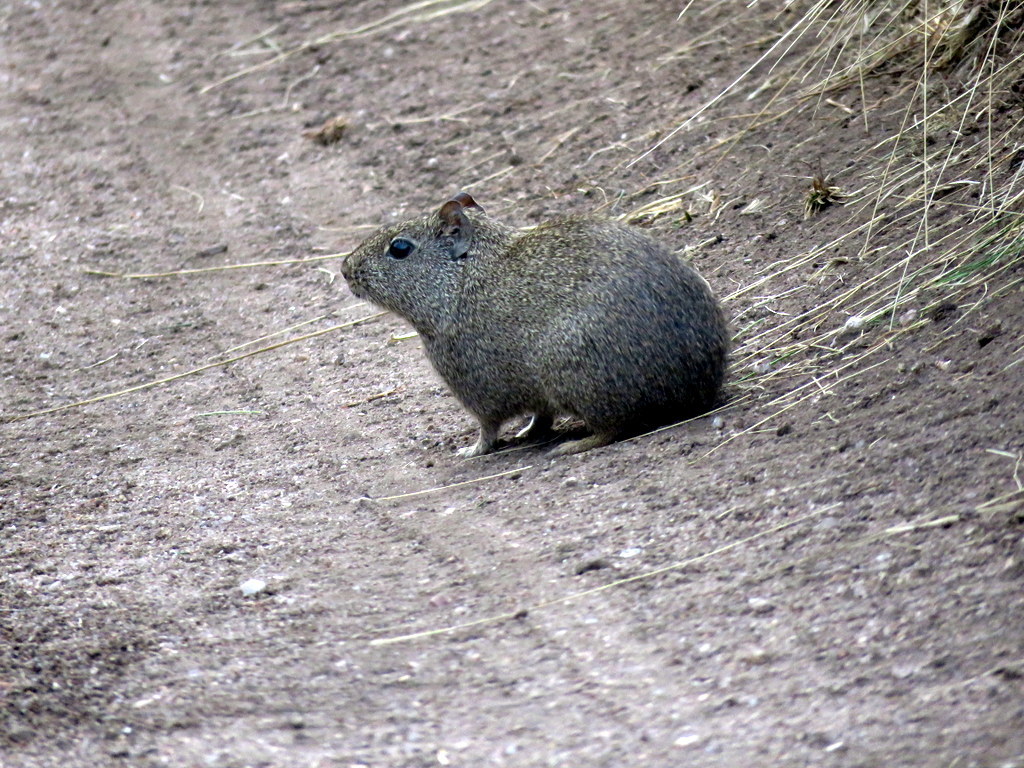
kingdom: Animalia
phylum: Chordata
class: Mammalia
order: Rodentia
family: Caviidae
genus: Galea
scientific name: Galea musteloides
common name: Common yellow-toothed cavy
